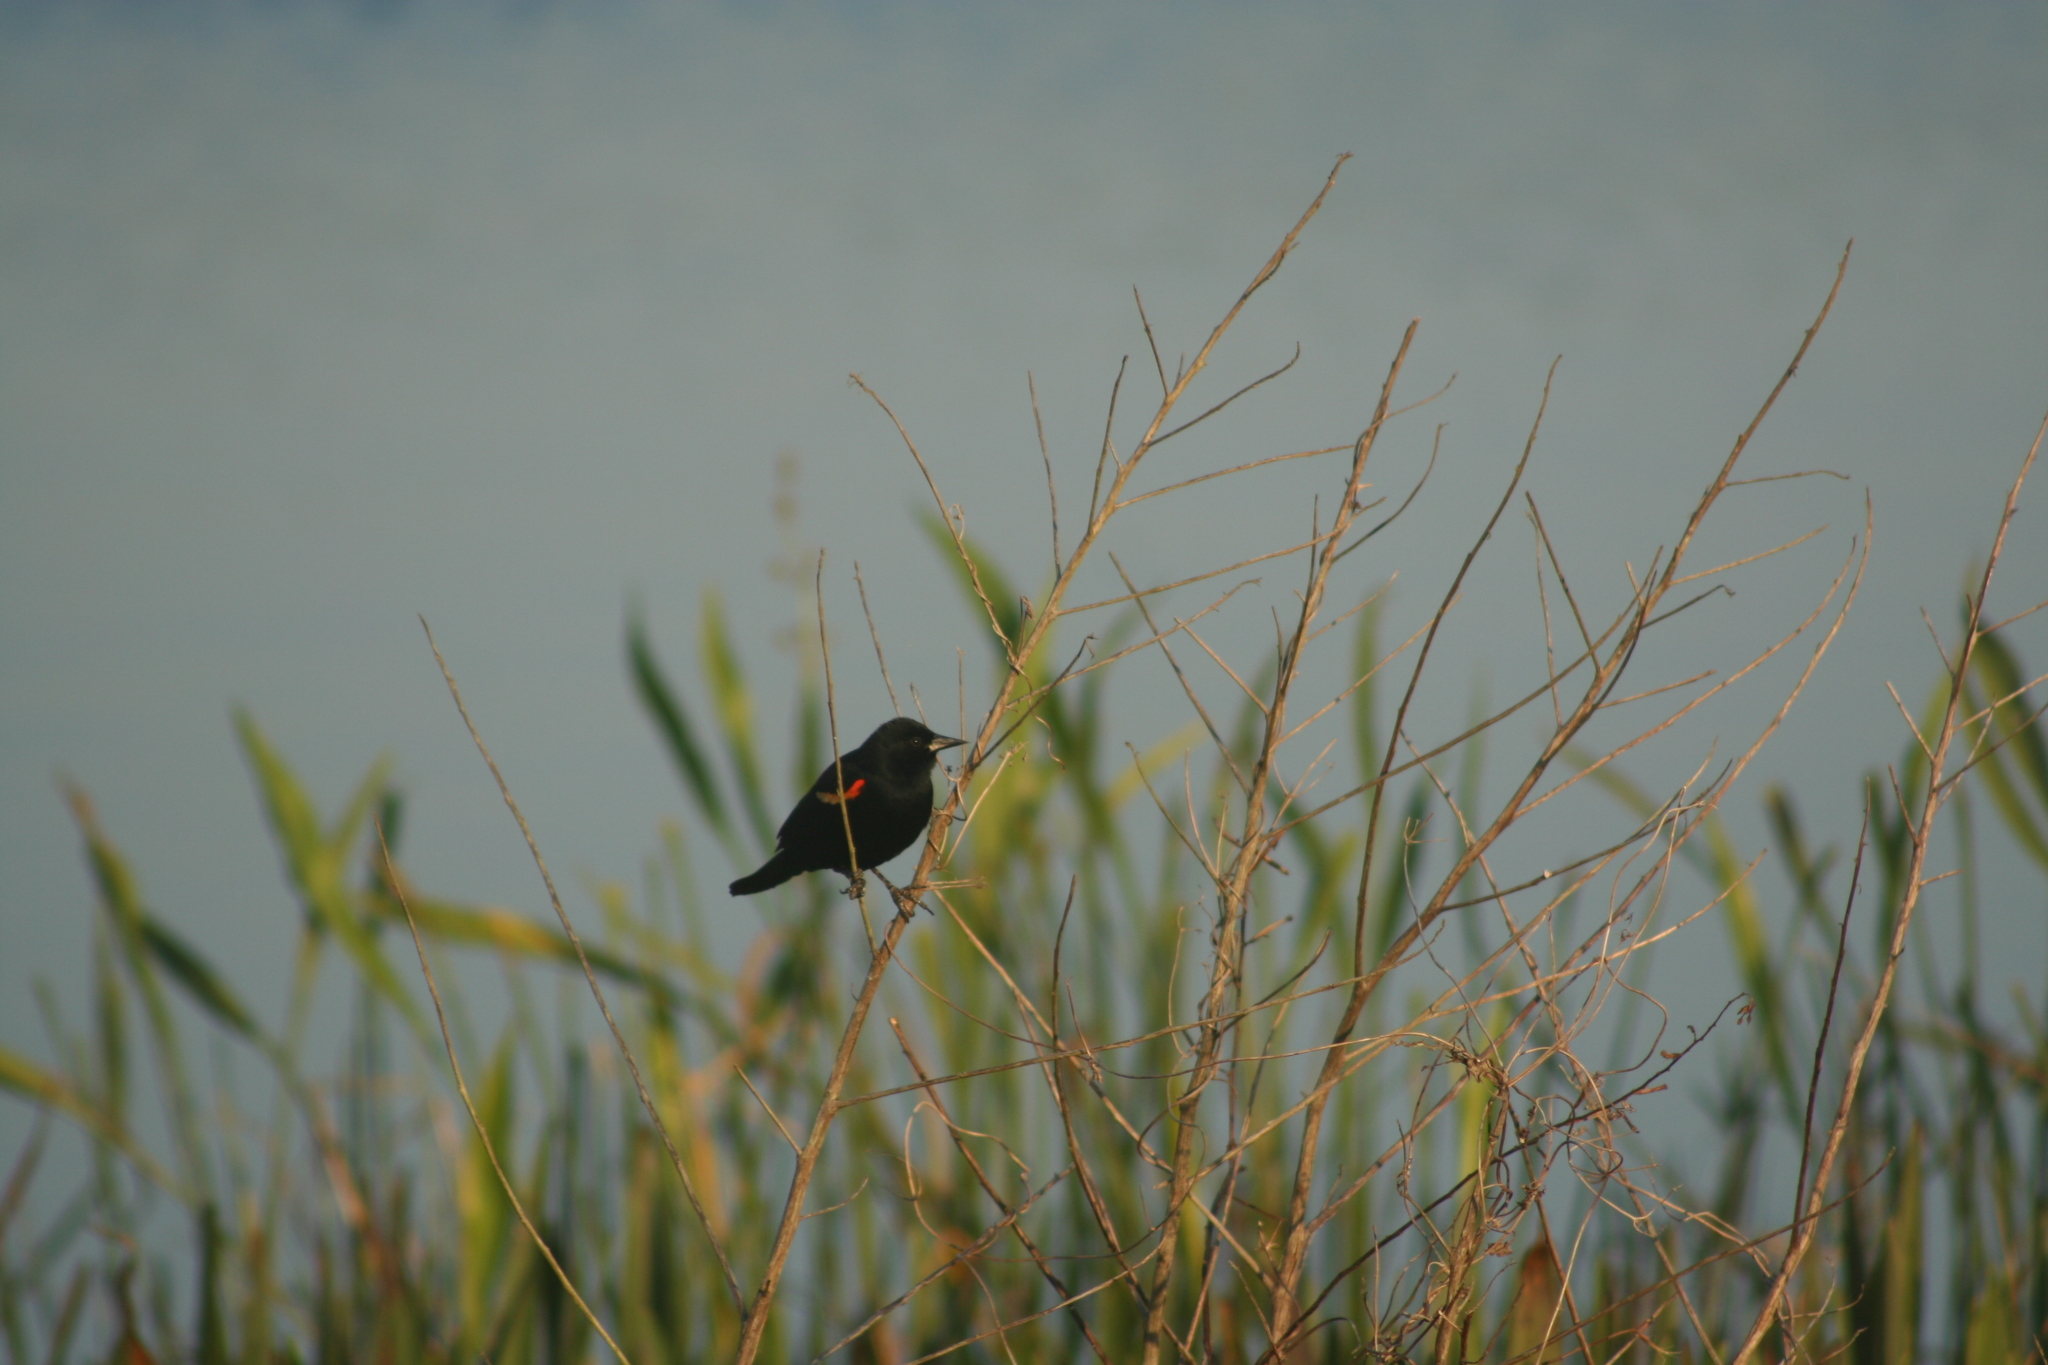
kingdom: Animalia
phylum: Chordata
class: Aves
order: Passeriformes
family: Icteridae
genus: Agelaius
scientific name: Agelaius phoeniceus
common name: Red-winged blackbird
